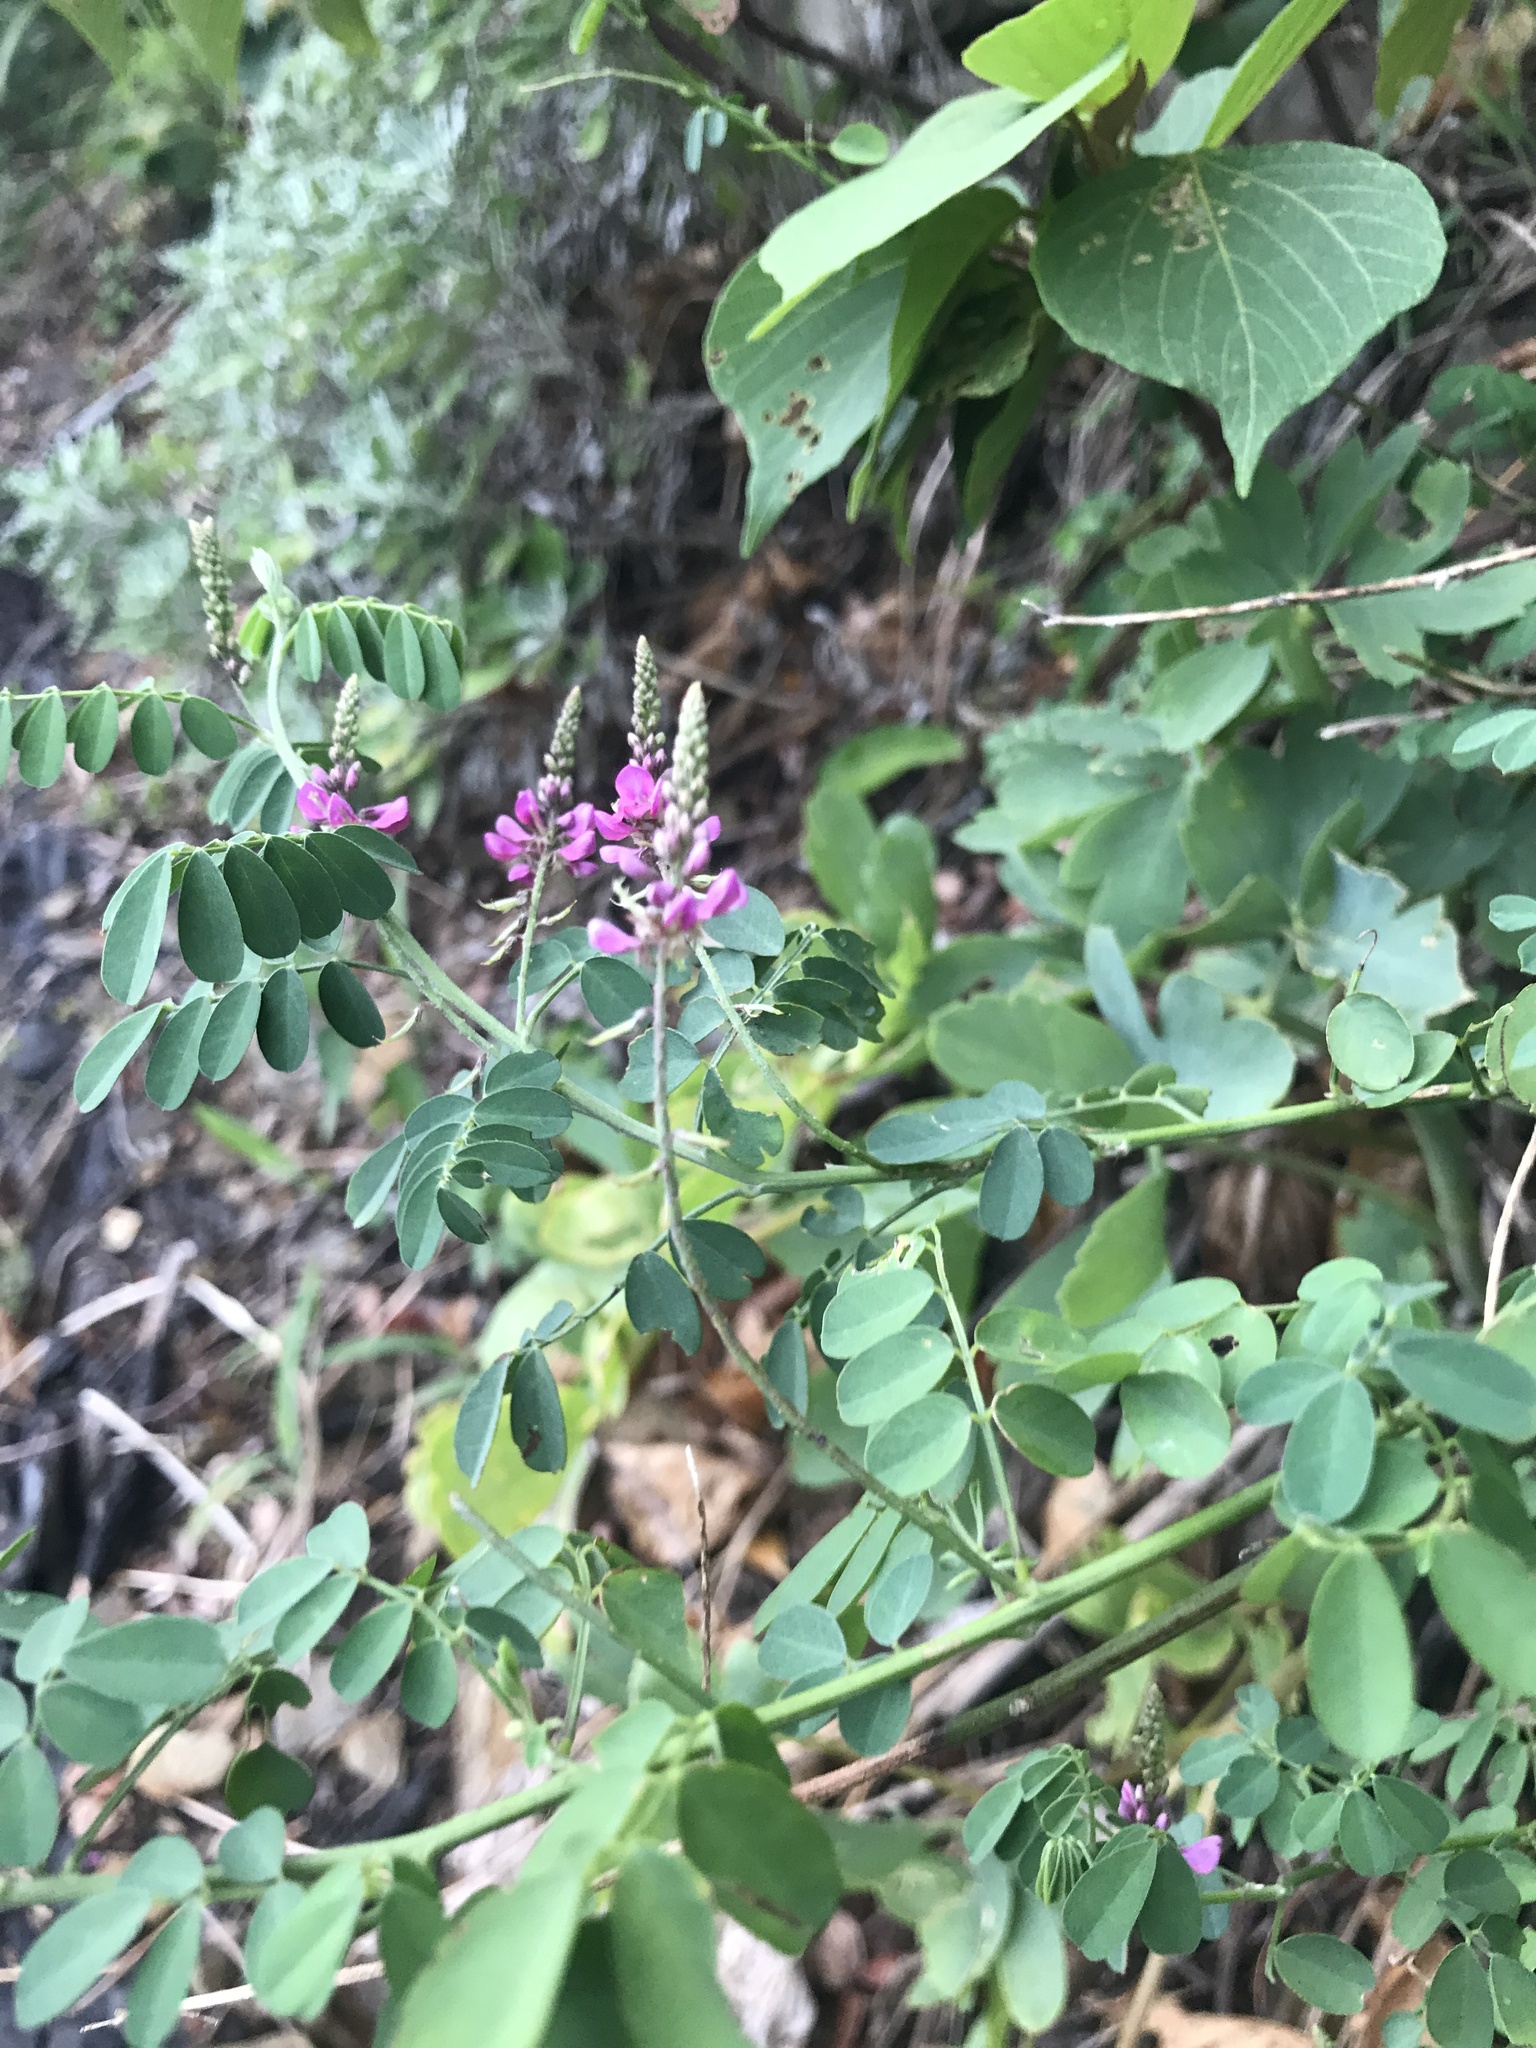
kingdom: Plantae
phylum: Tracheophyta
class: Magnoliopsida
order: Fabales
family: Fabaceae
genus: Indigofera
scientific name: Indigofera bungeana
